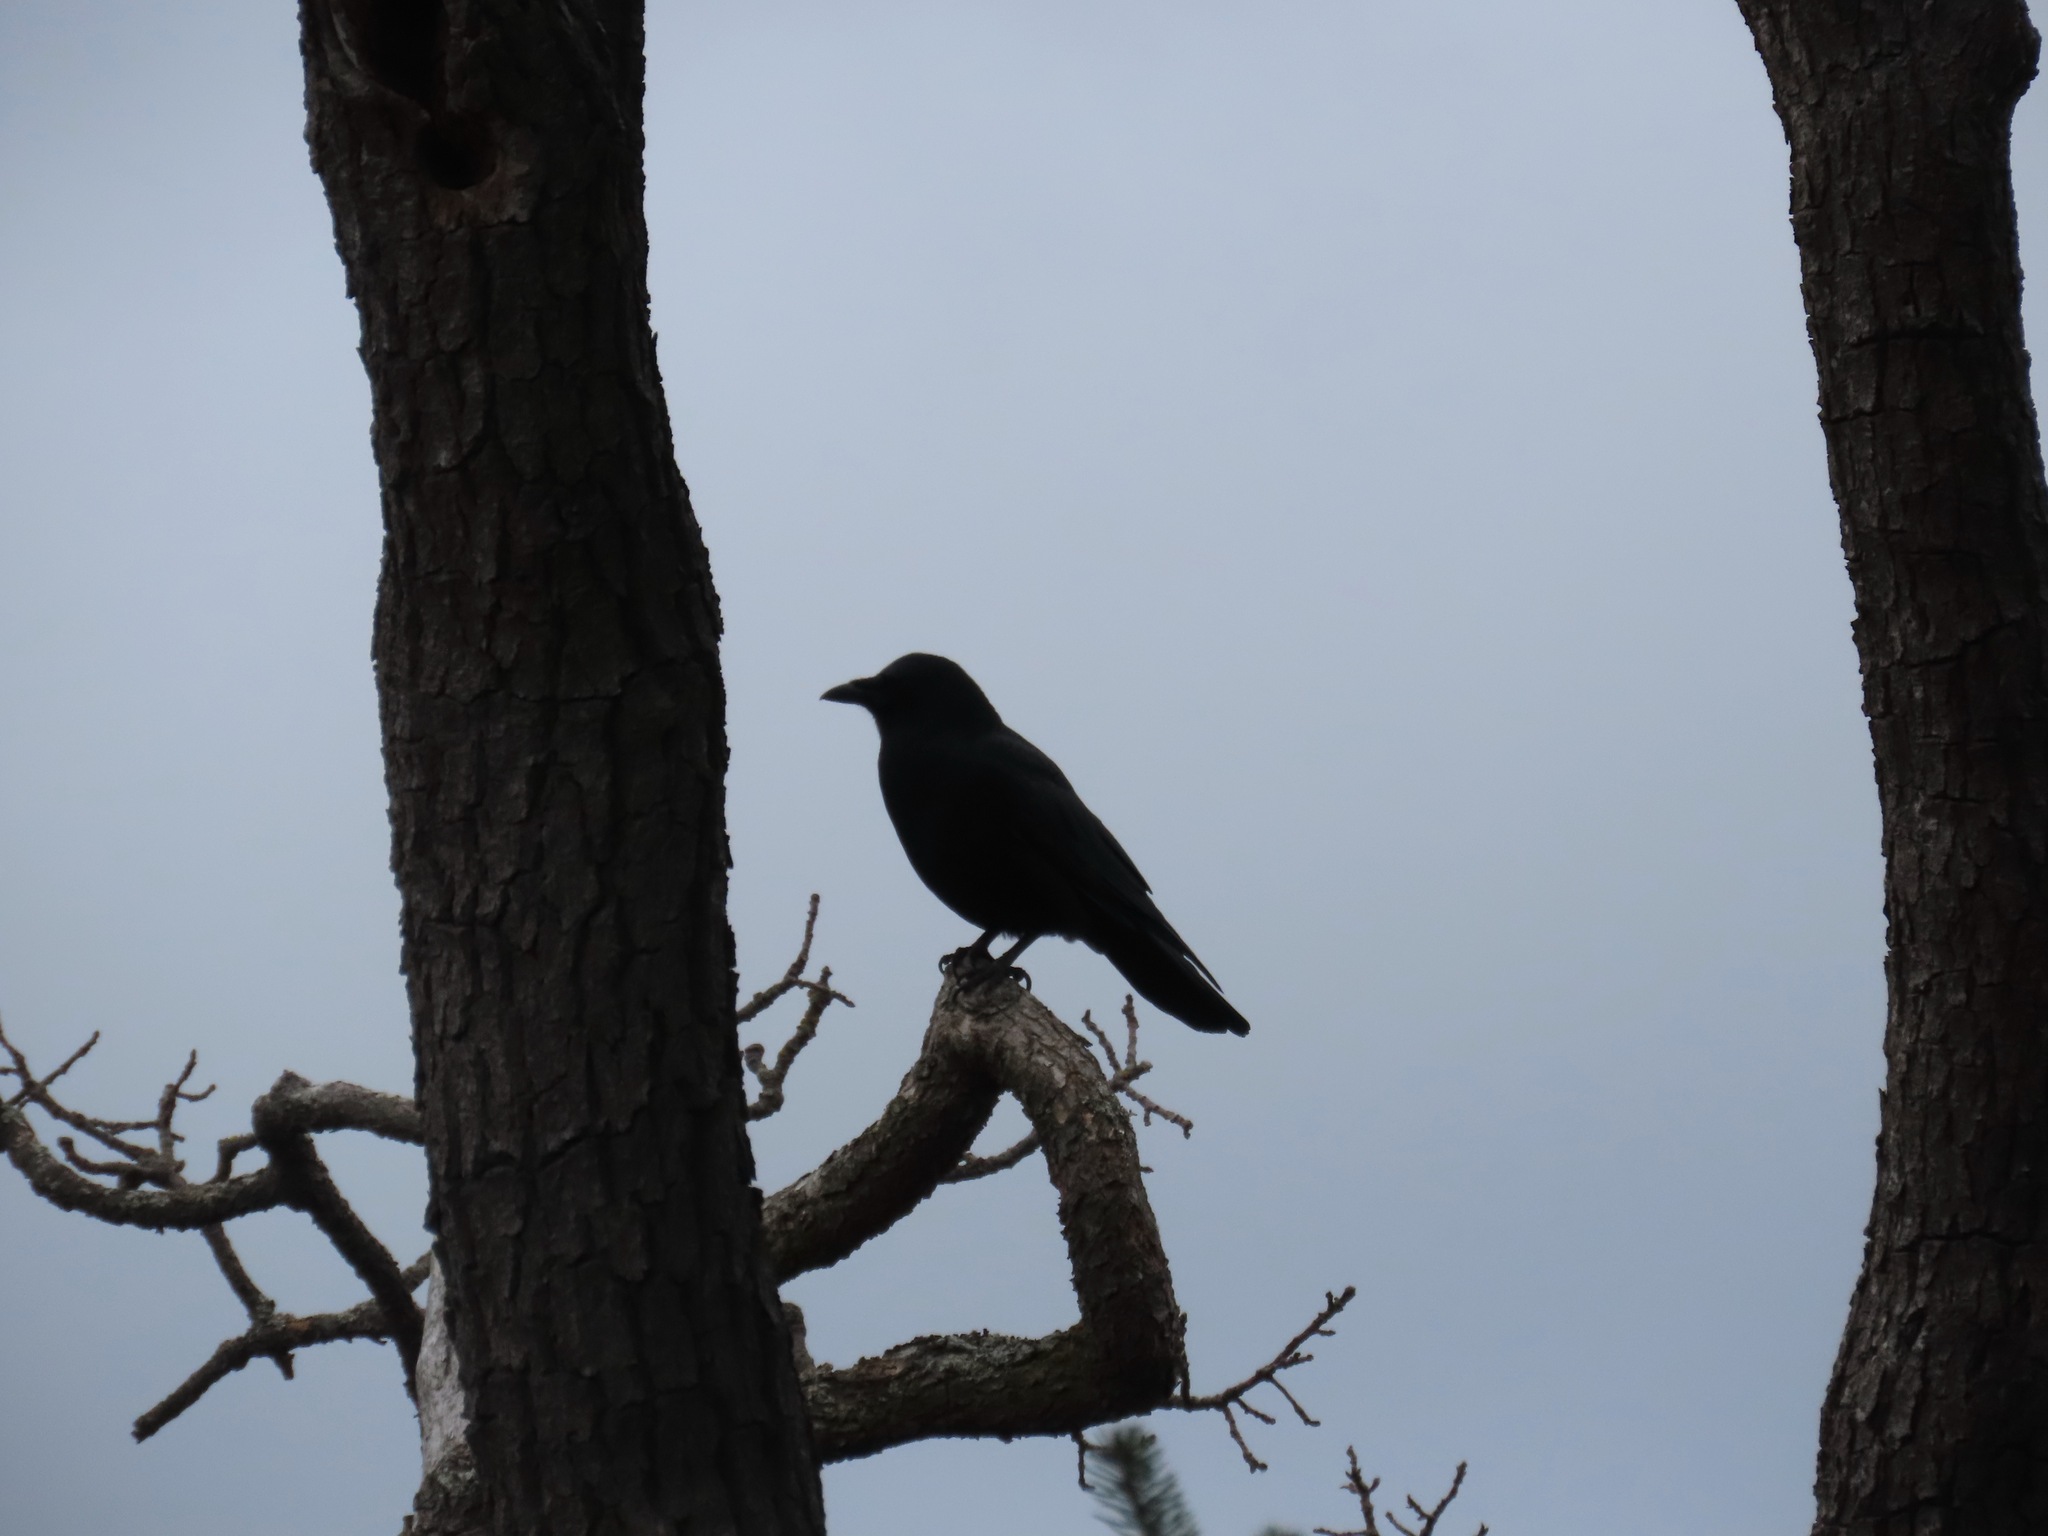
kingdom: Animalia
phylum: Chordata
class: Aves
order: Passeriformes
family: Corvidae
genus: Corvus
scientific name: Corvus brachyrhynchos
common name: American crow
